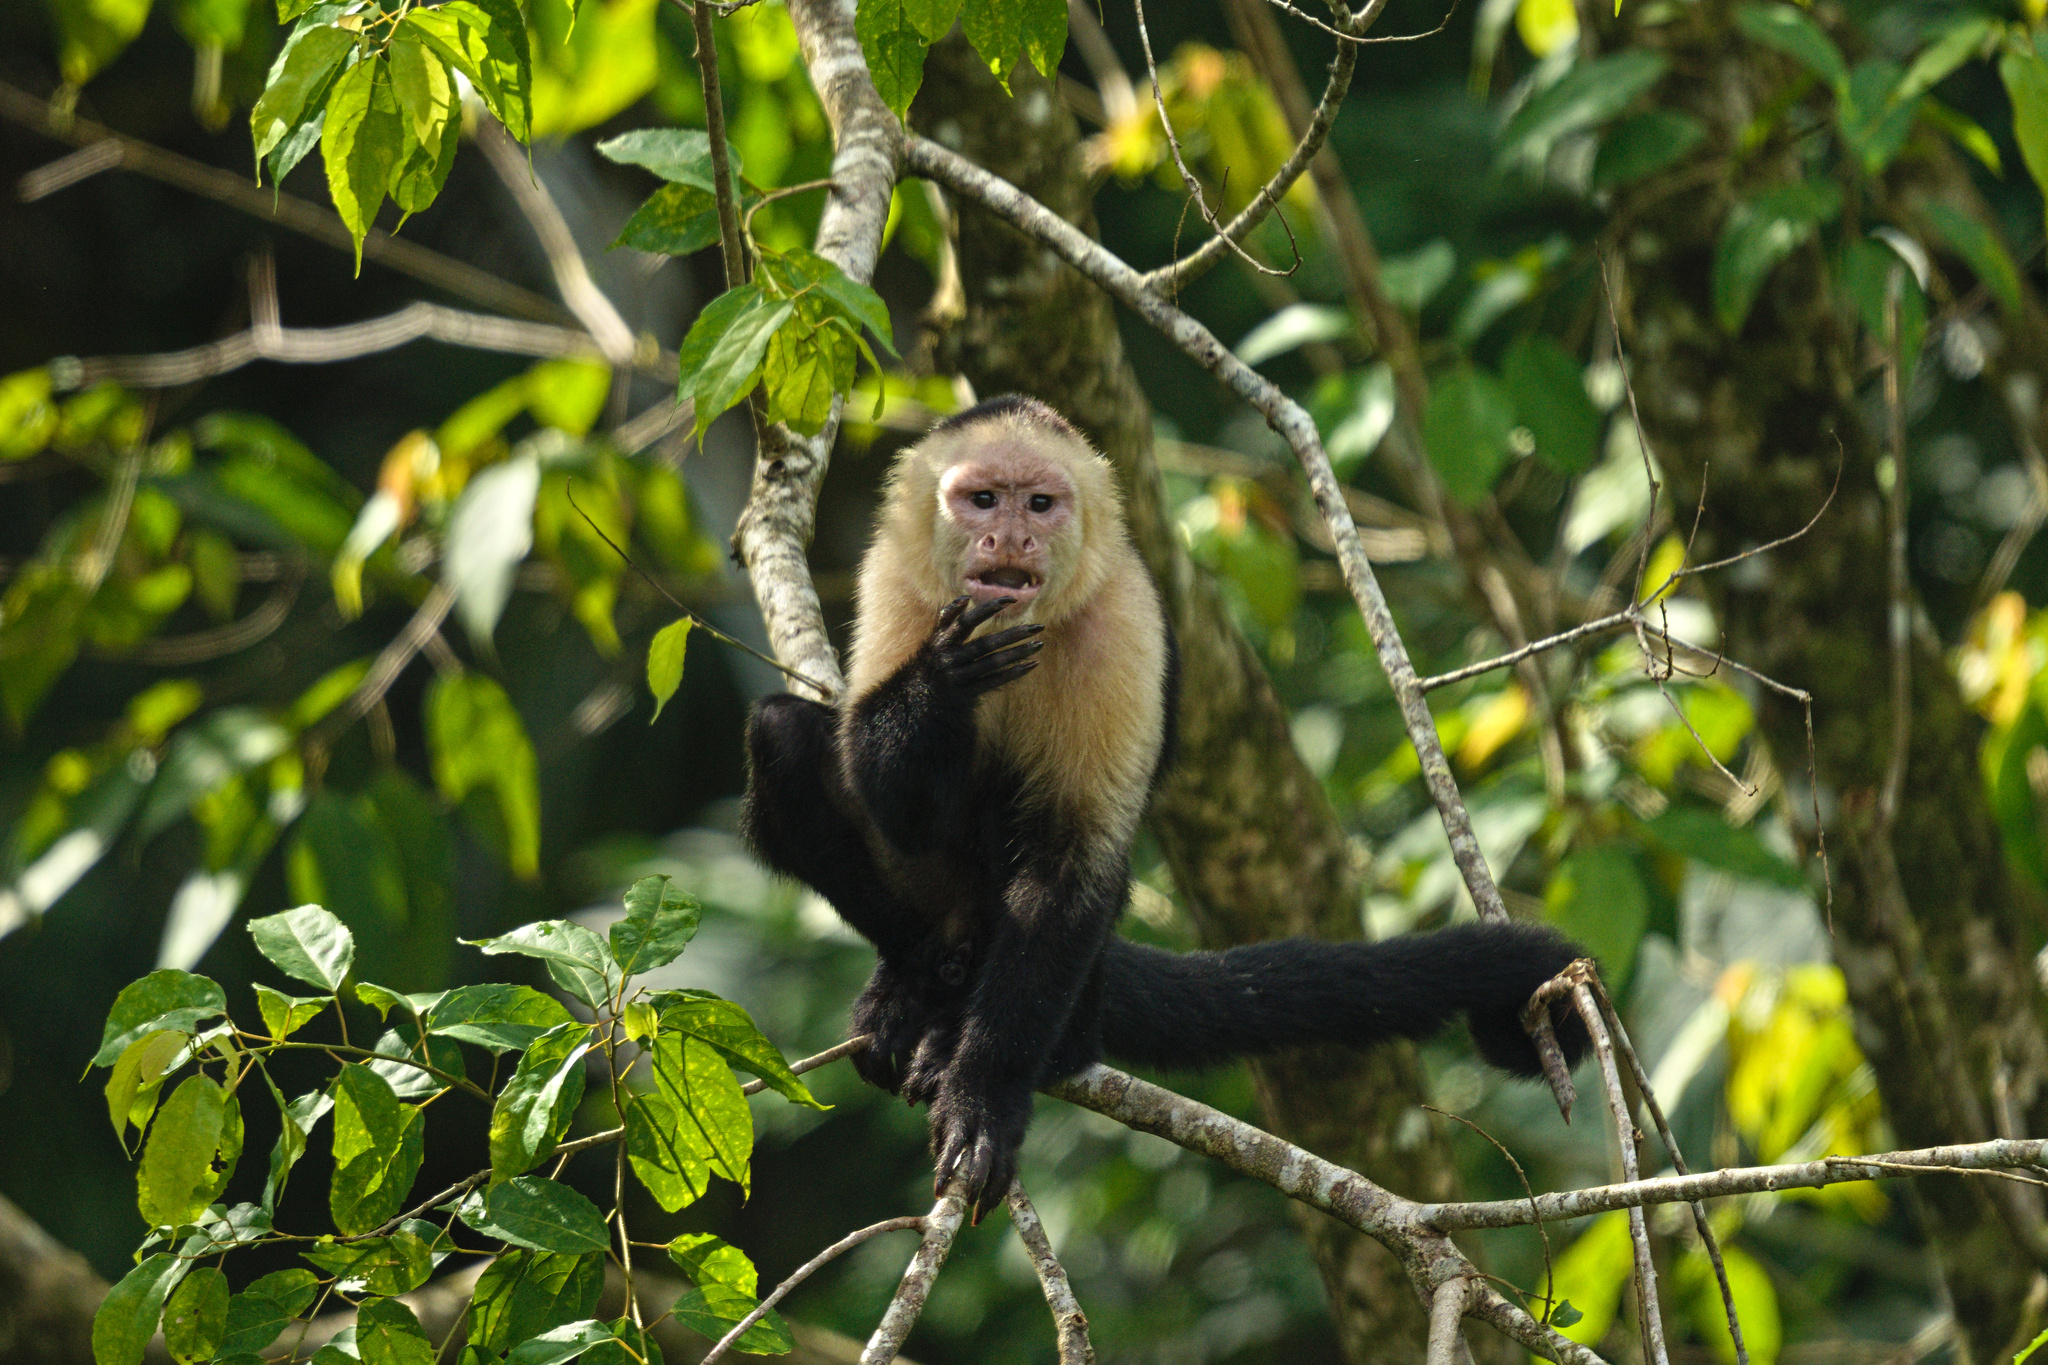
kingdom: Animalia
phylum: Chordata
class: Mammalia
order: Primates
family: Cebidae
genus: Cebus
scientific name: Cebus imitator
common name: Panamanian white-faced capuchin
